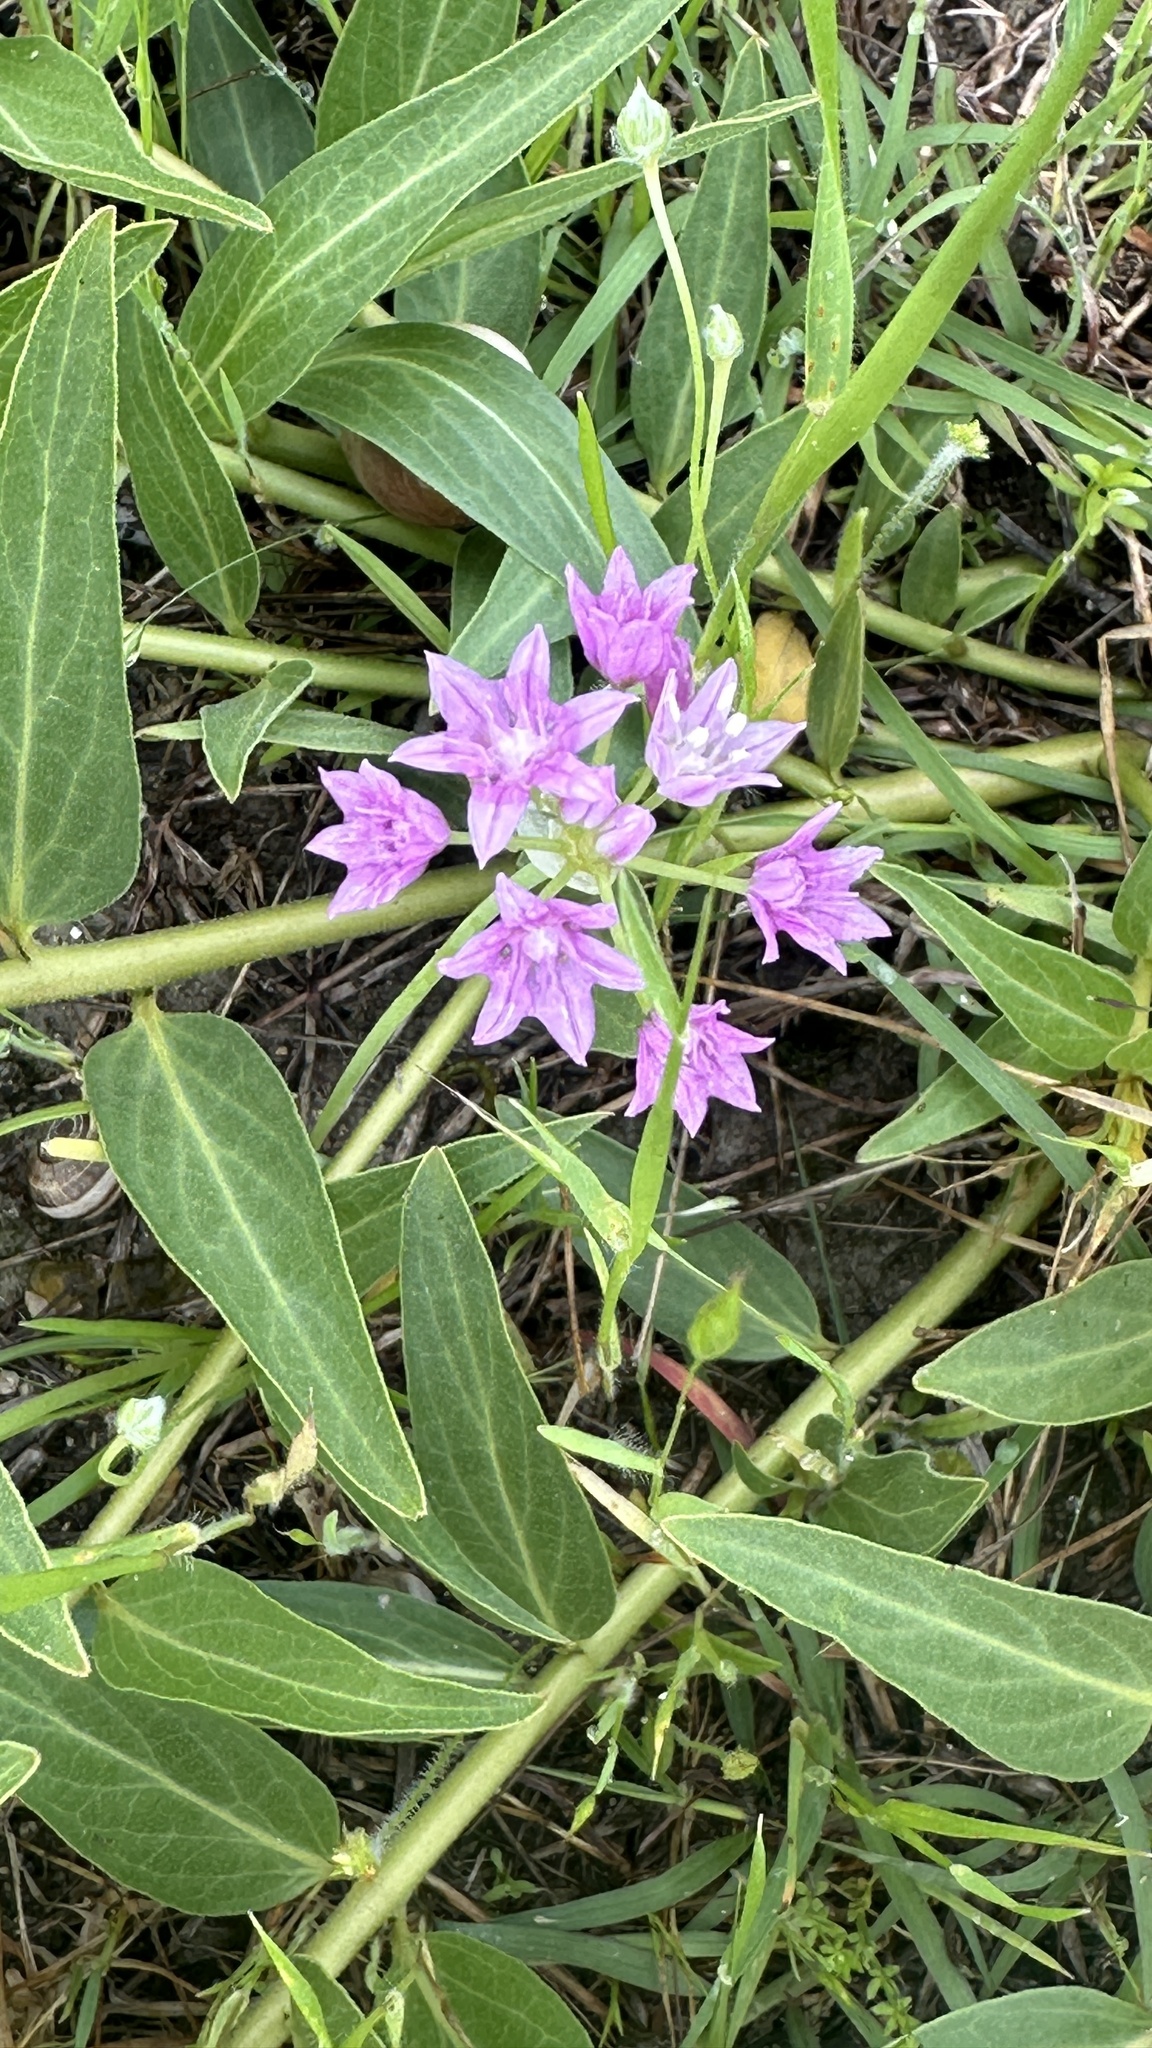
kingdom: Plantae
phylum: Tracheophyta
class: Liliopsida
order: Asparagales
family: Amaryllidaceae
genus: Allium
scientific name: Allium drummondii
